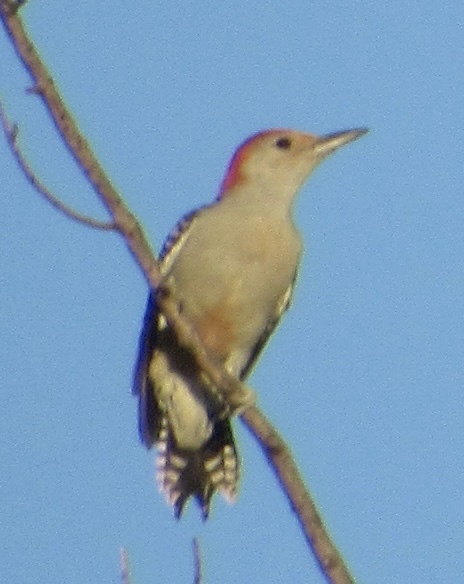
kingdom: Animalia
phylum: Chordata
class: Aves
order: Piciformes
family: Picidae
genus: Melanerpes
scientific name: Melanerpes carolinus
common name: Red-bellied woodpecker
